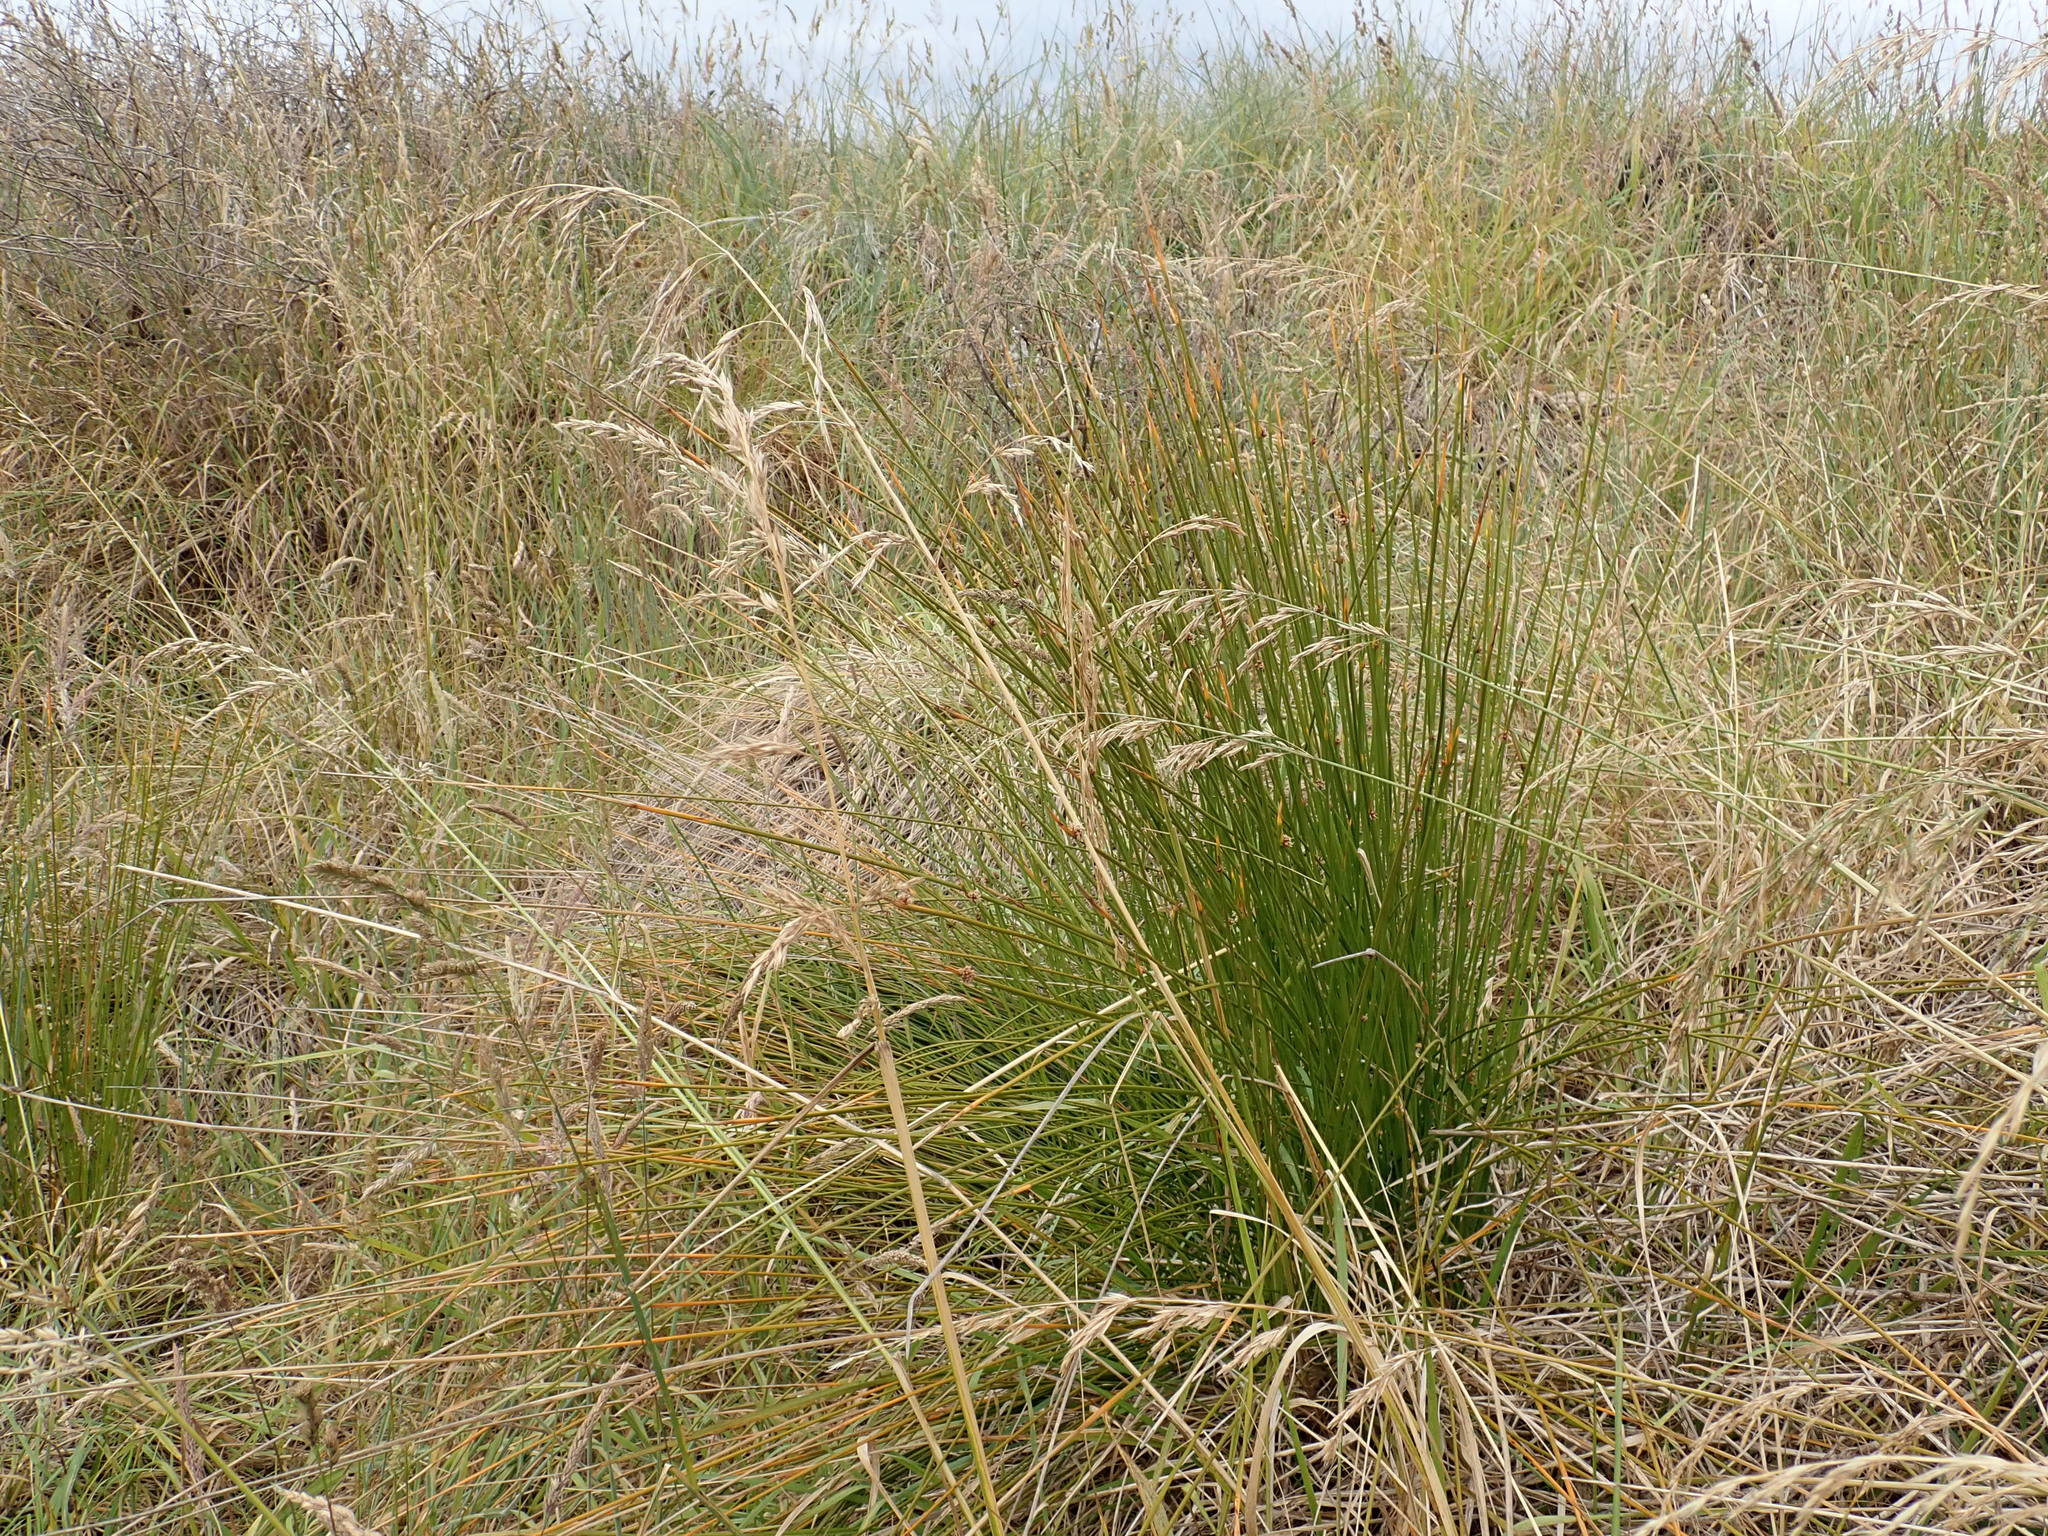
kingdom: Plantae
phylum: Tracheophyta
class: Liliopsida
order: Poales
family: Poaceae
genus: Lolium
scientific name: Lolium arundinaceum
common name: Reed fescue
